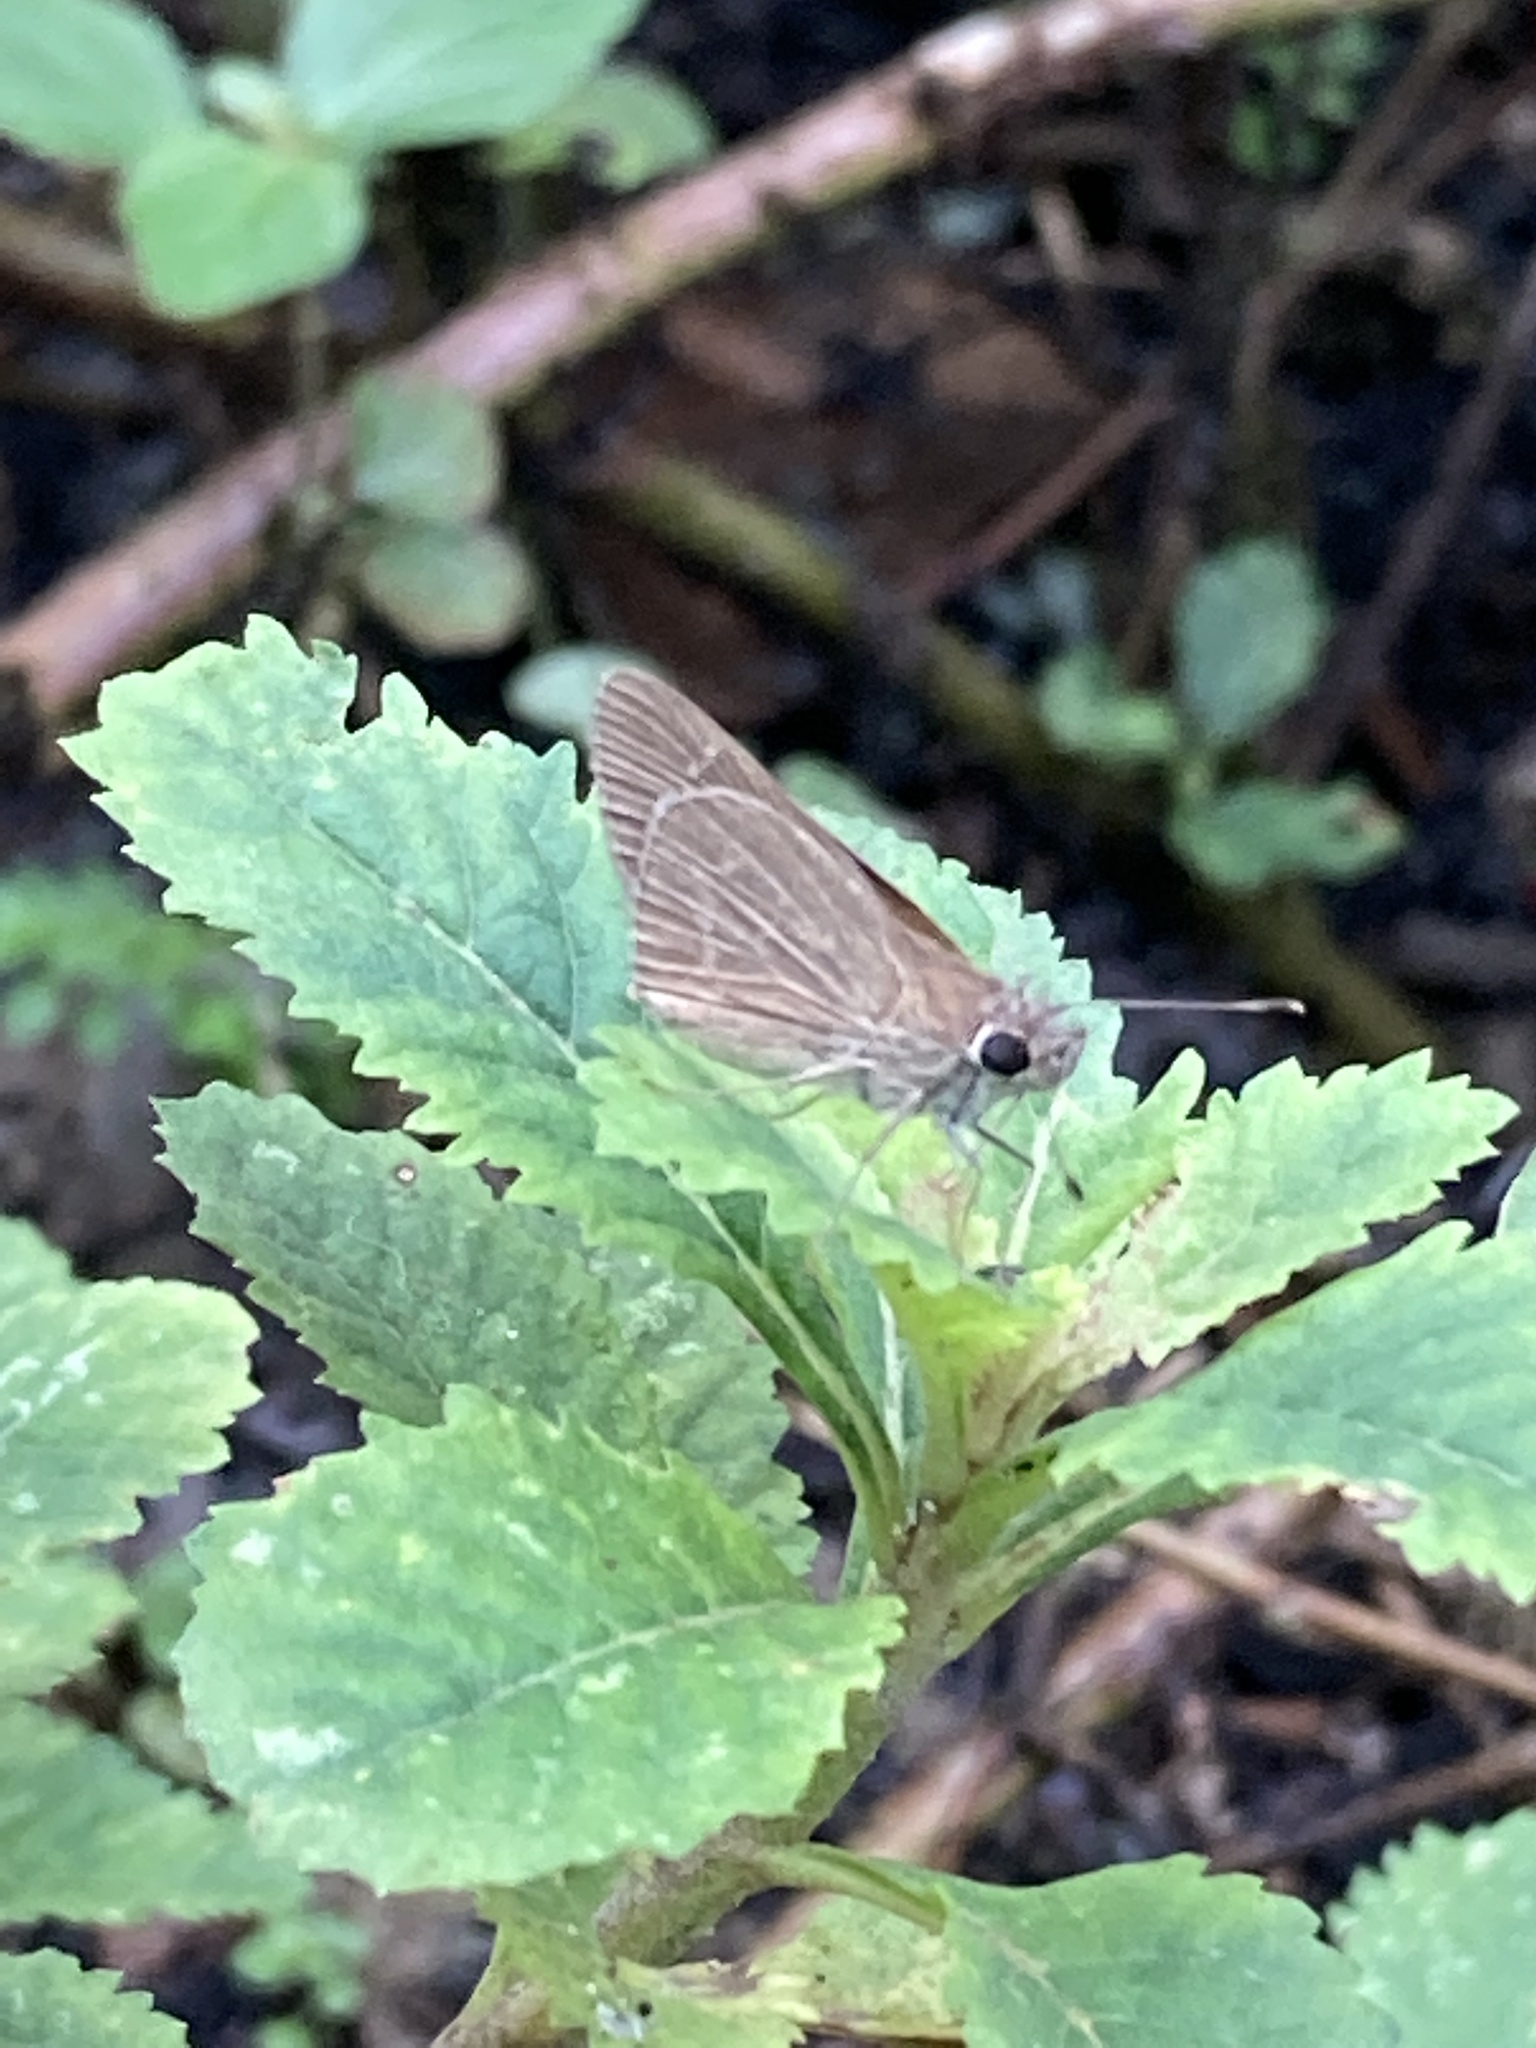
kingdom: Animalia
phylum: Arthropoda
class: Insecta
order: Lepidoptera
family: Hesperiidae
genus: Cymaenes
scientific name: Cymaenes tripunctus
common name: Dingy dotted skipper
